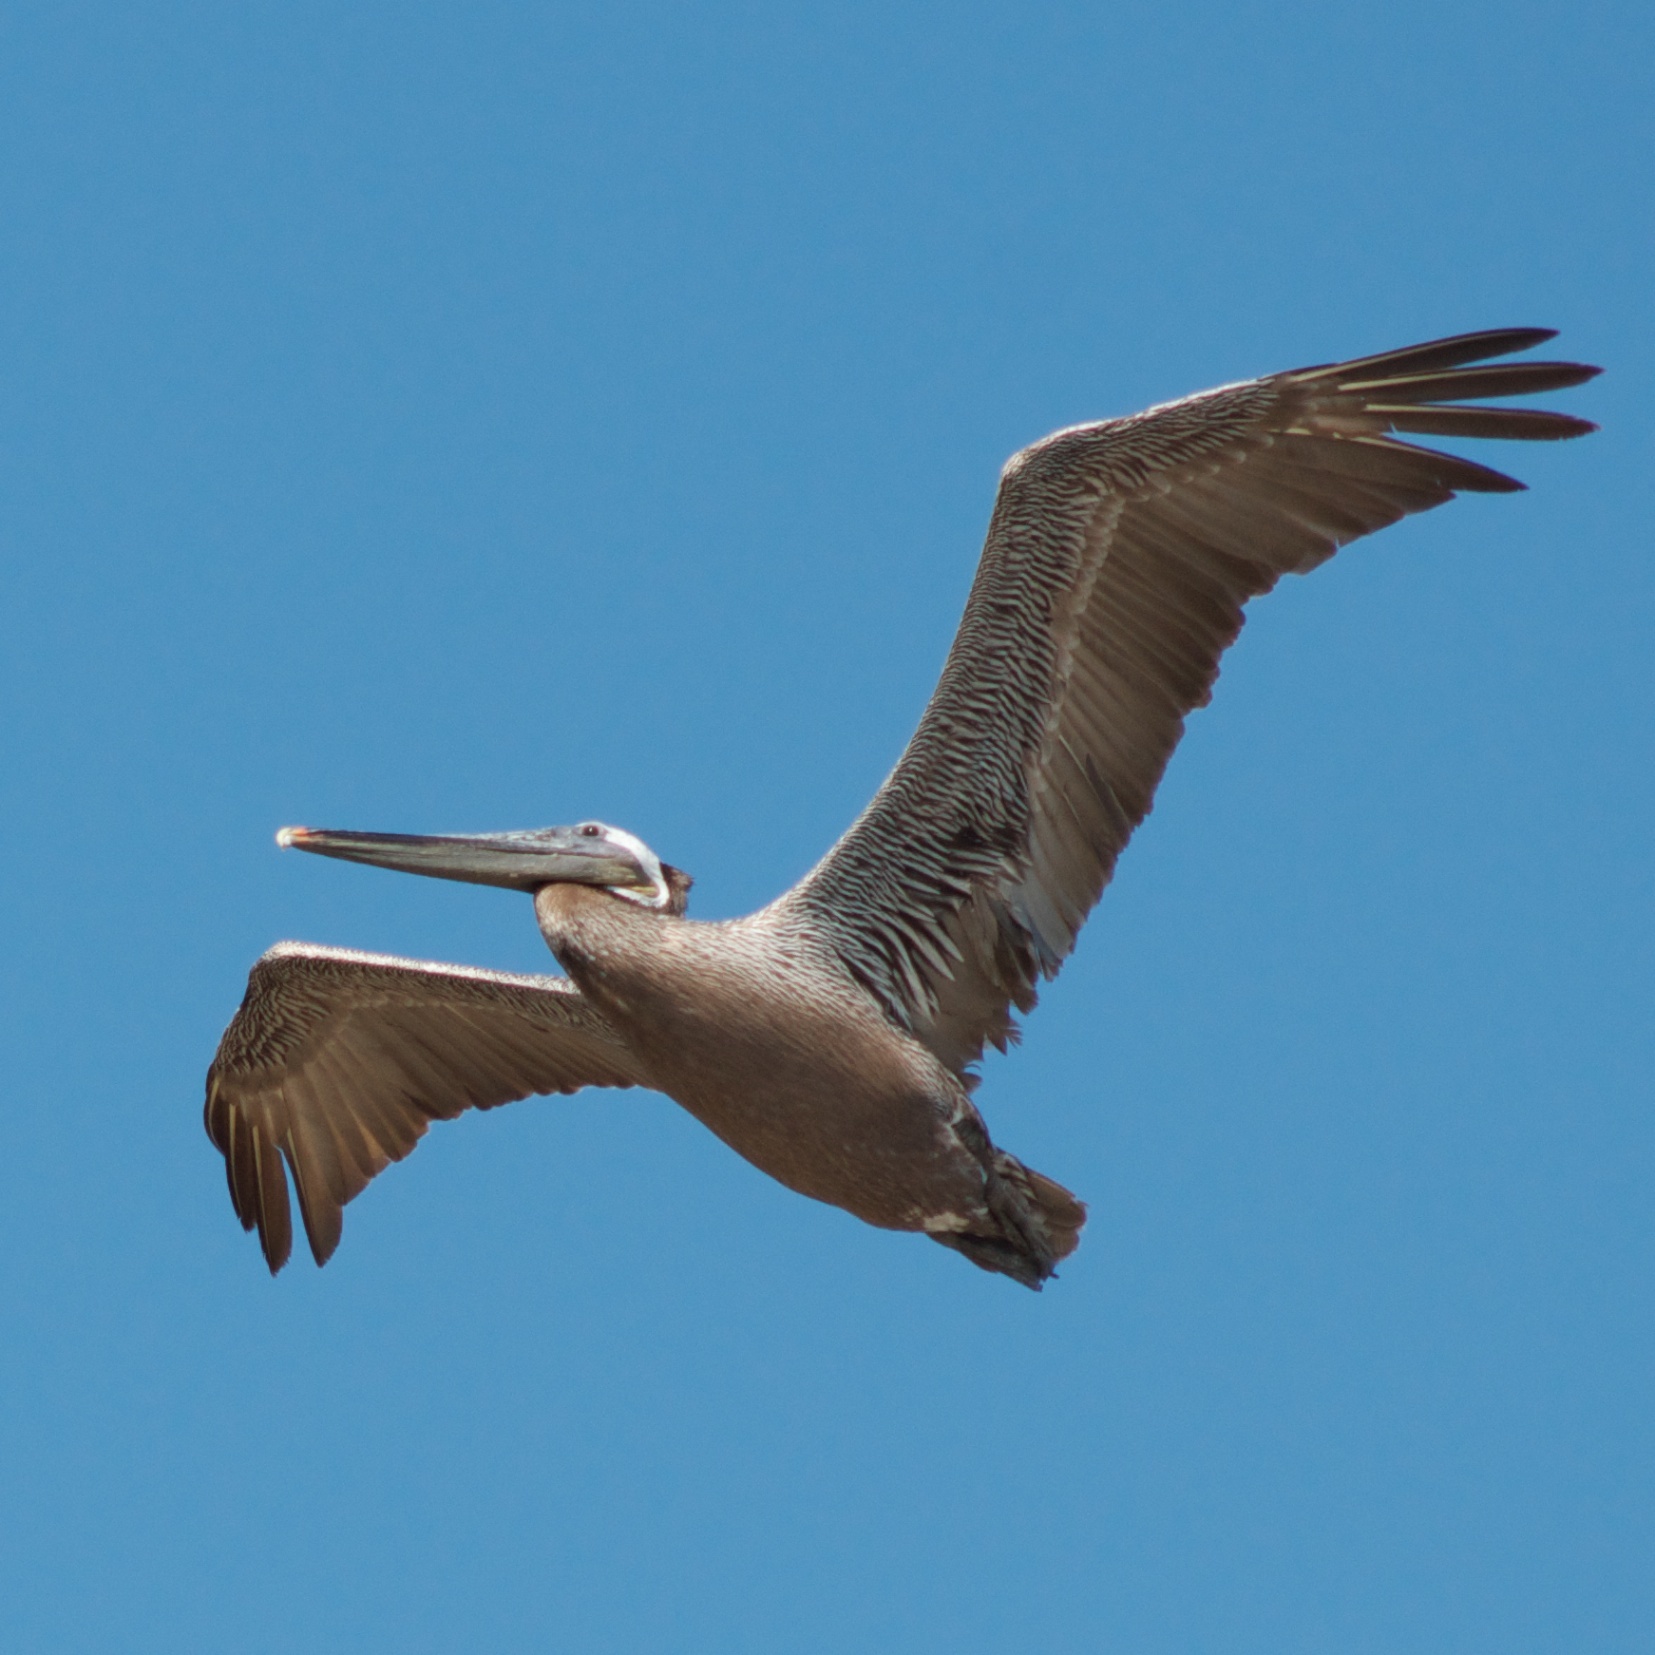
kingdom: Animalia
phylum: Chordata
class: Aves
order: Pelecaniformes
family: Pelecanidae
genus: Pelecanus
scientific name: Pelecanus occidentalis
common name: Brown pelican
